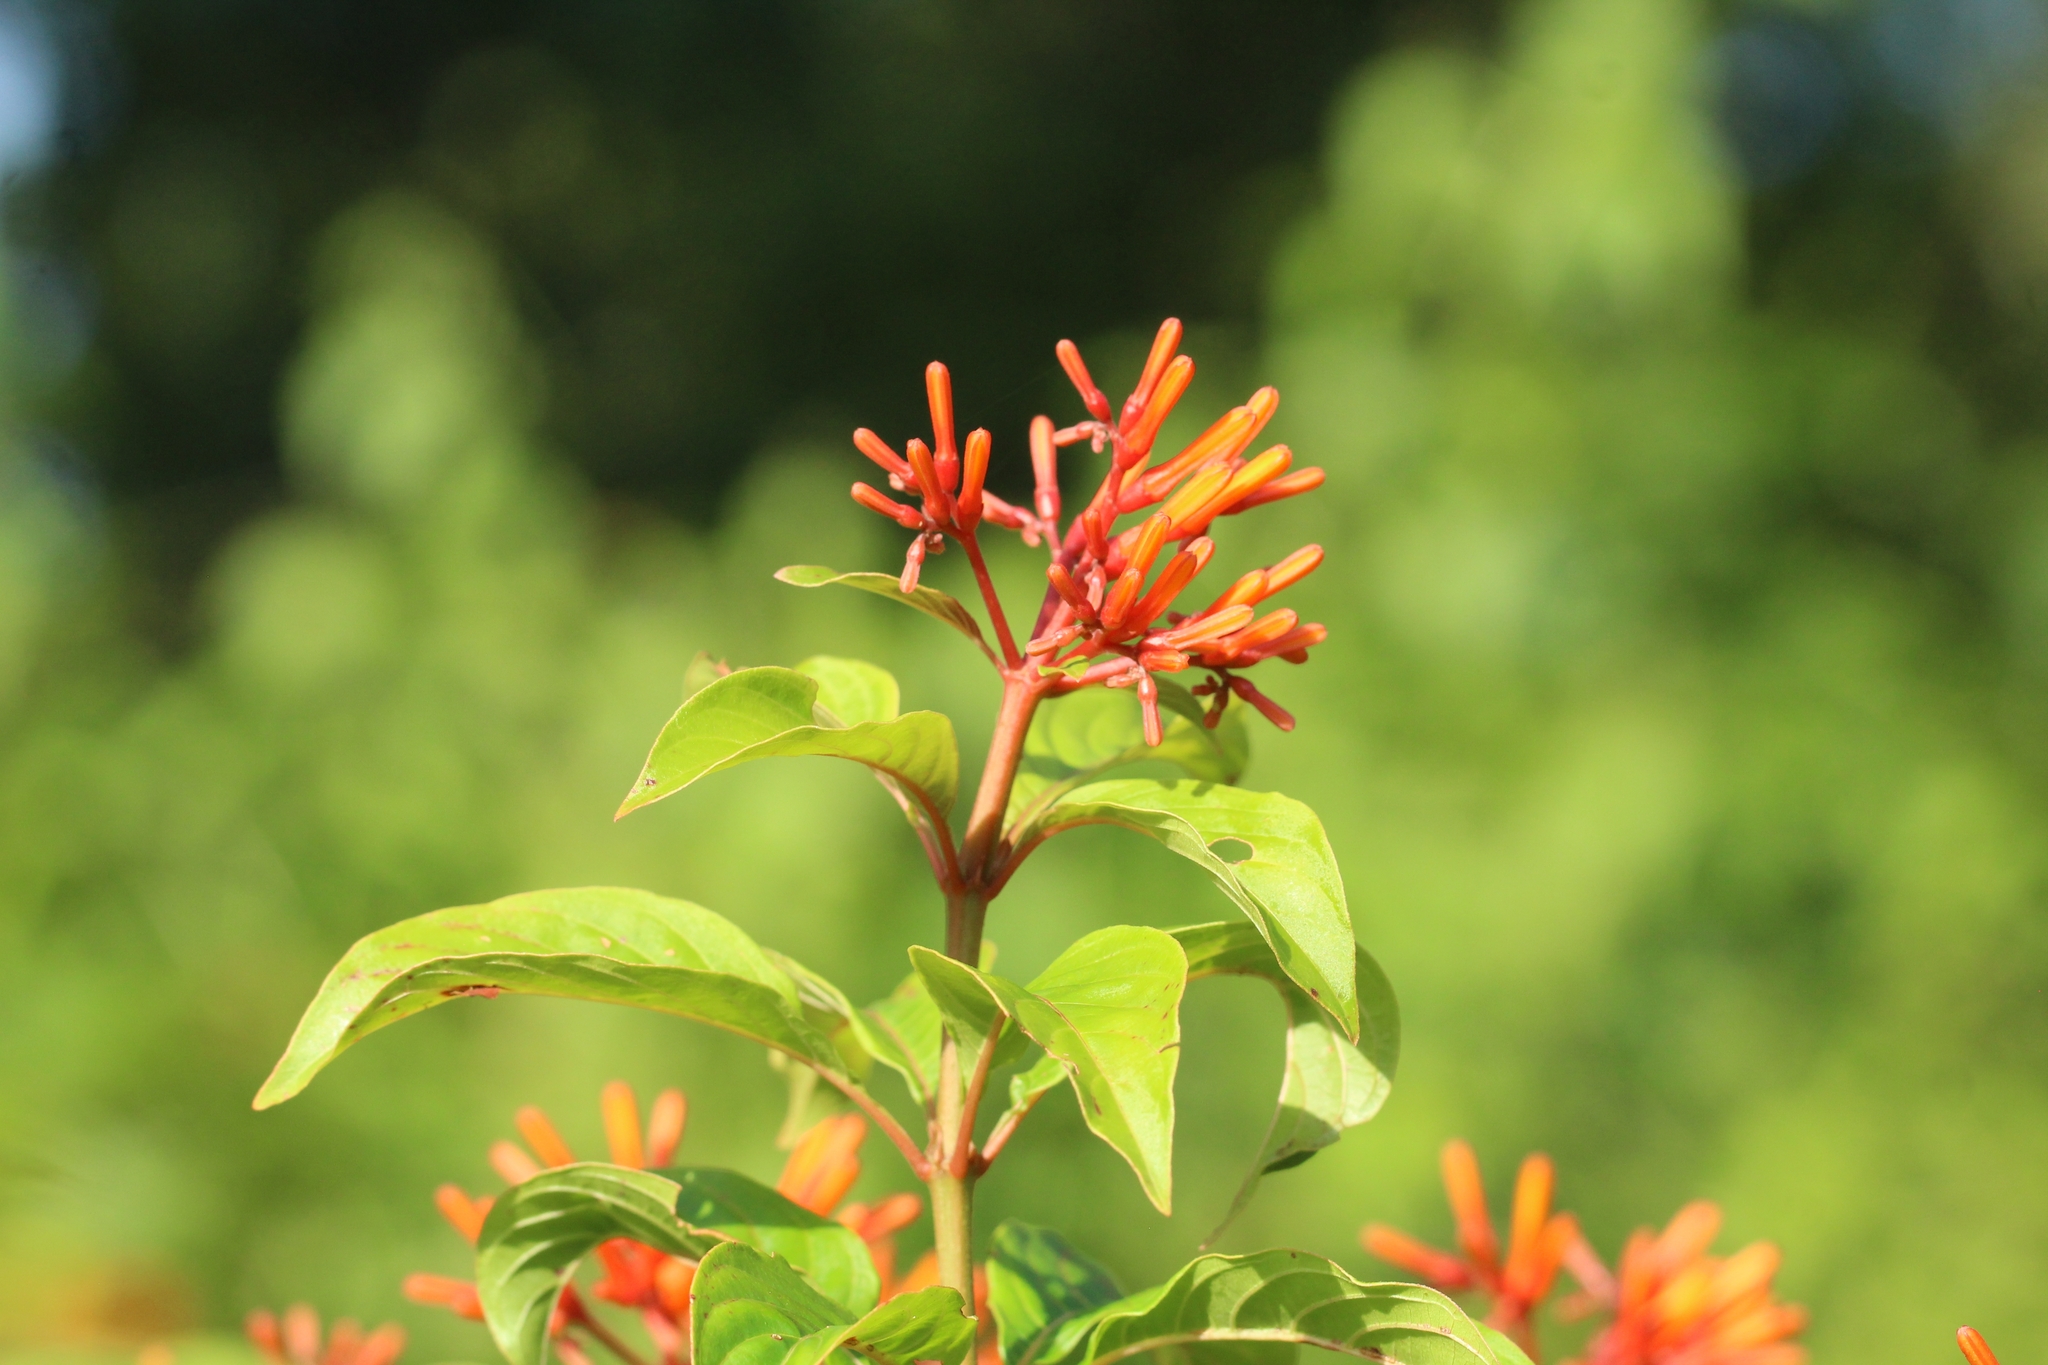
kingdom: Plantae
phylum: Tracheophyta
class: Magnoliopsida
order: Gentianales
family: Rubiaceae
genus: Hamelia
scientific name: Hamelia patens
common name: Redhead
